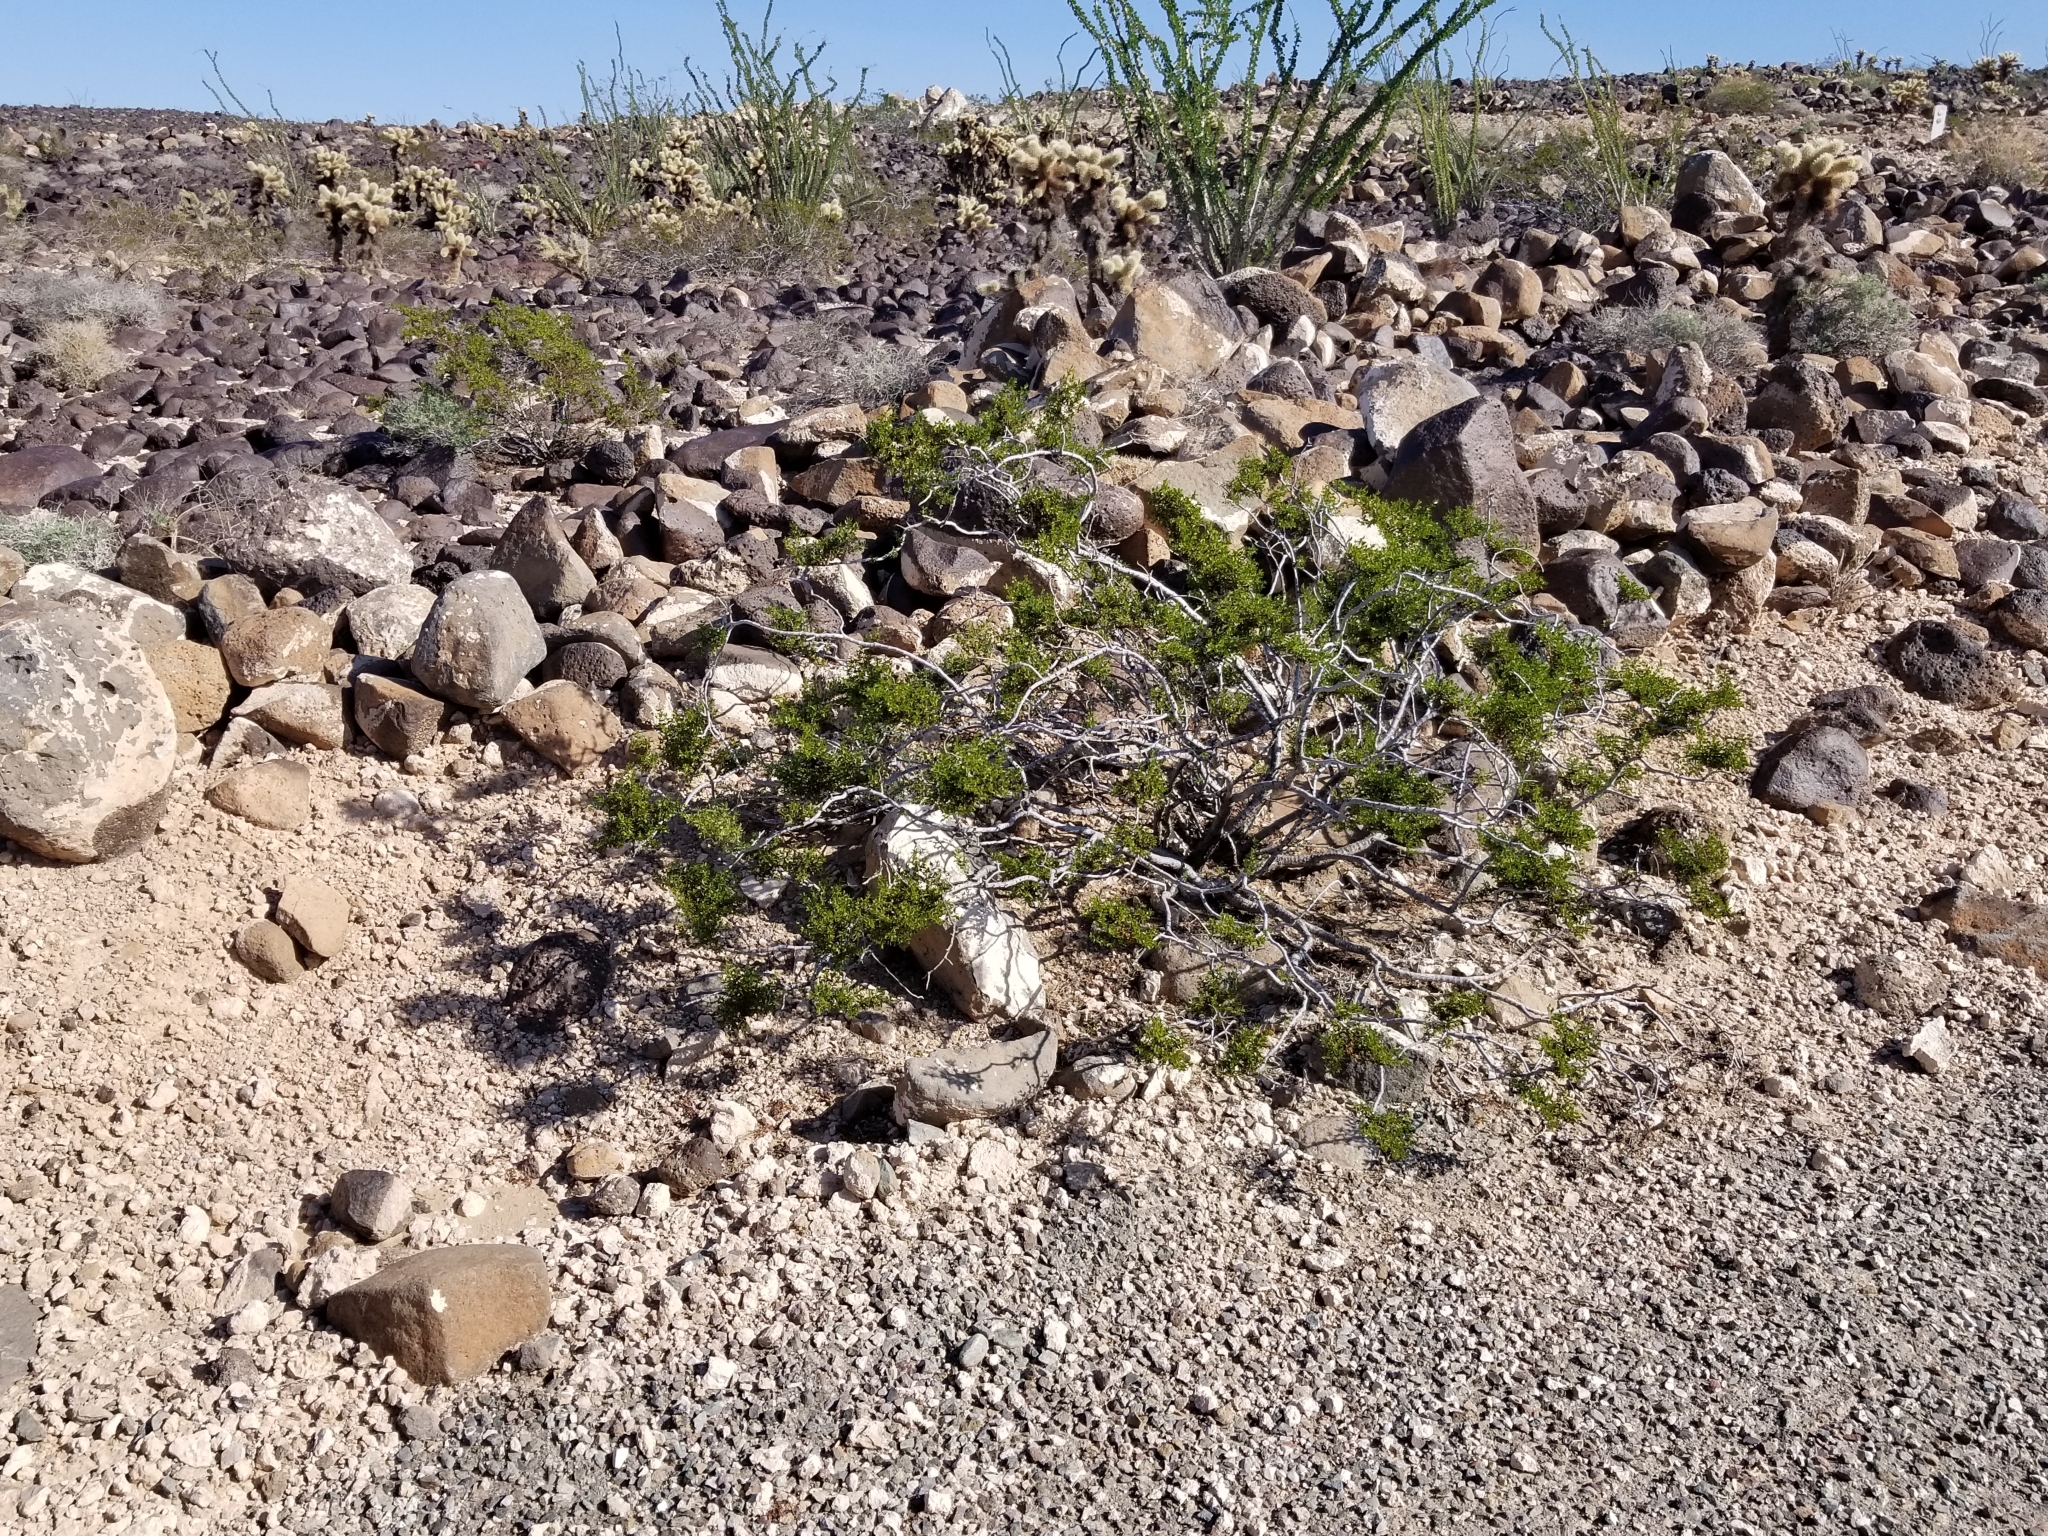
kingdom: Plantae
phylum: Tracheophyta
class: Magnoliopsida
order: Zygophyllales
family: Zygophyllaceae
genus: Larrea
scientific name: Larrea tridentata
